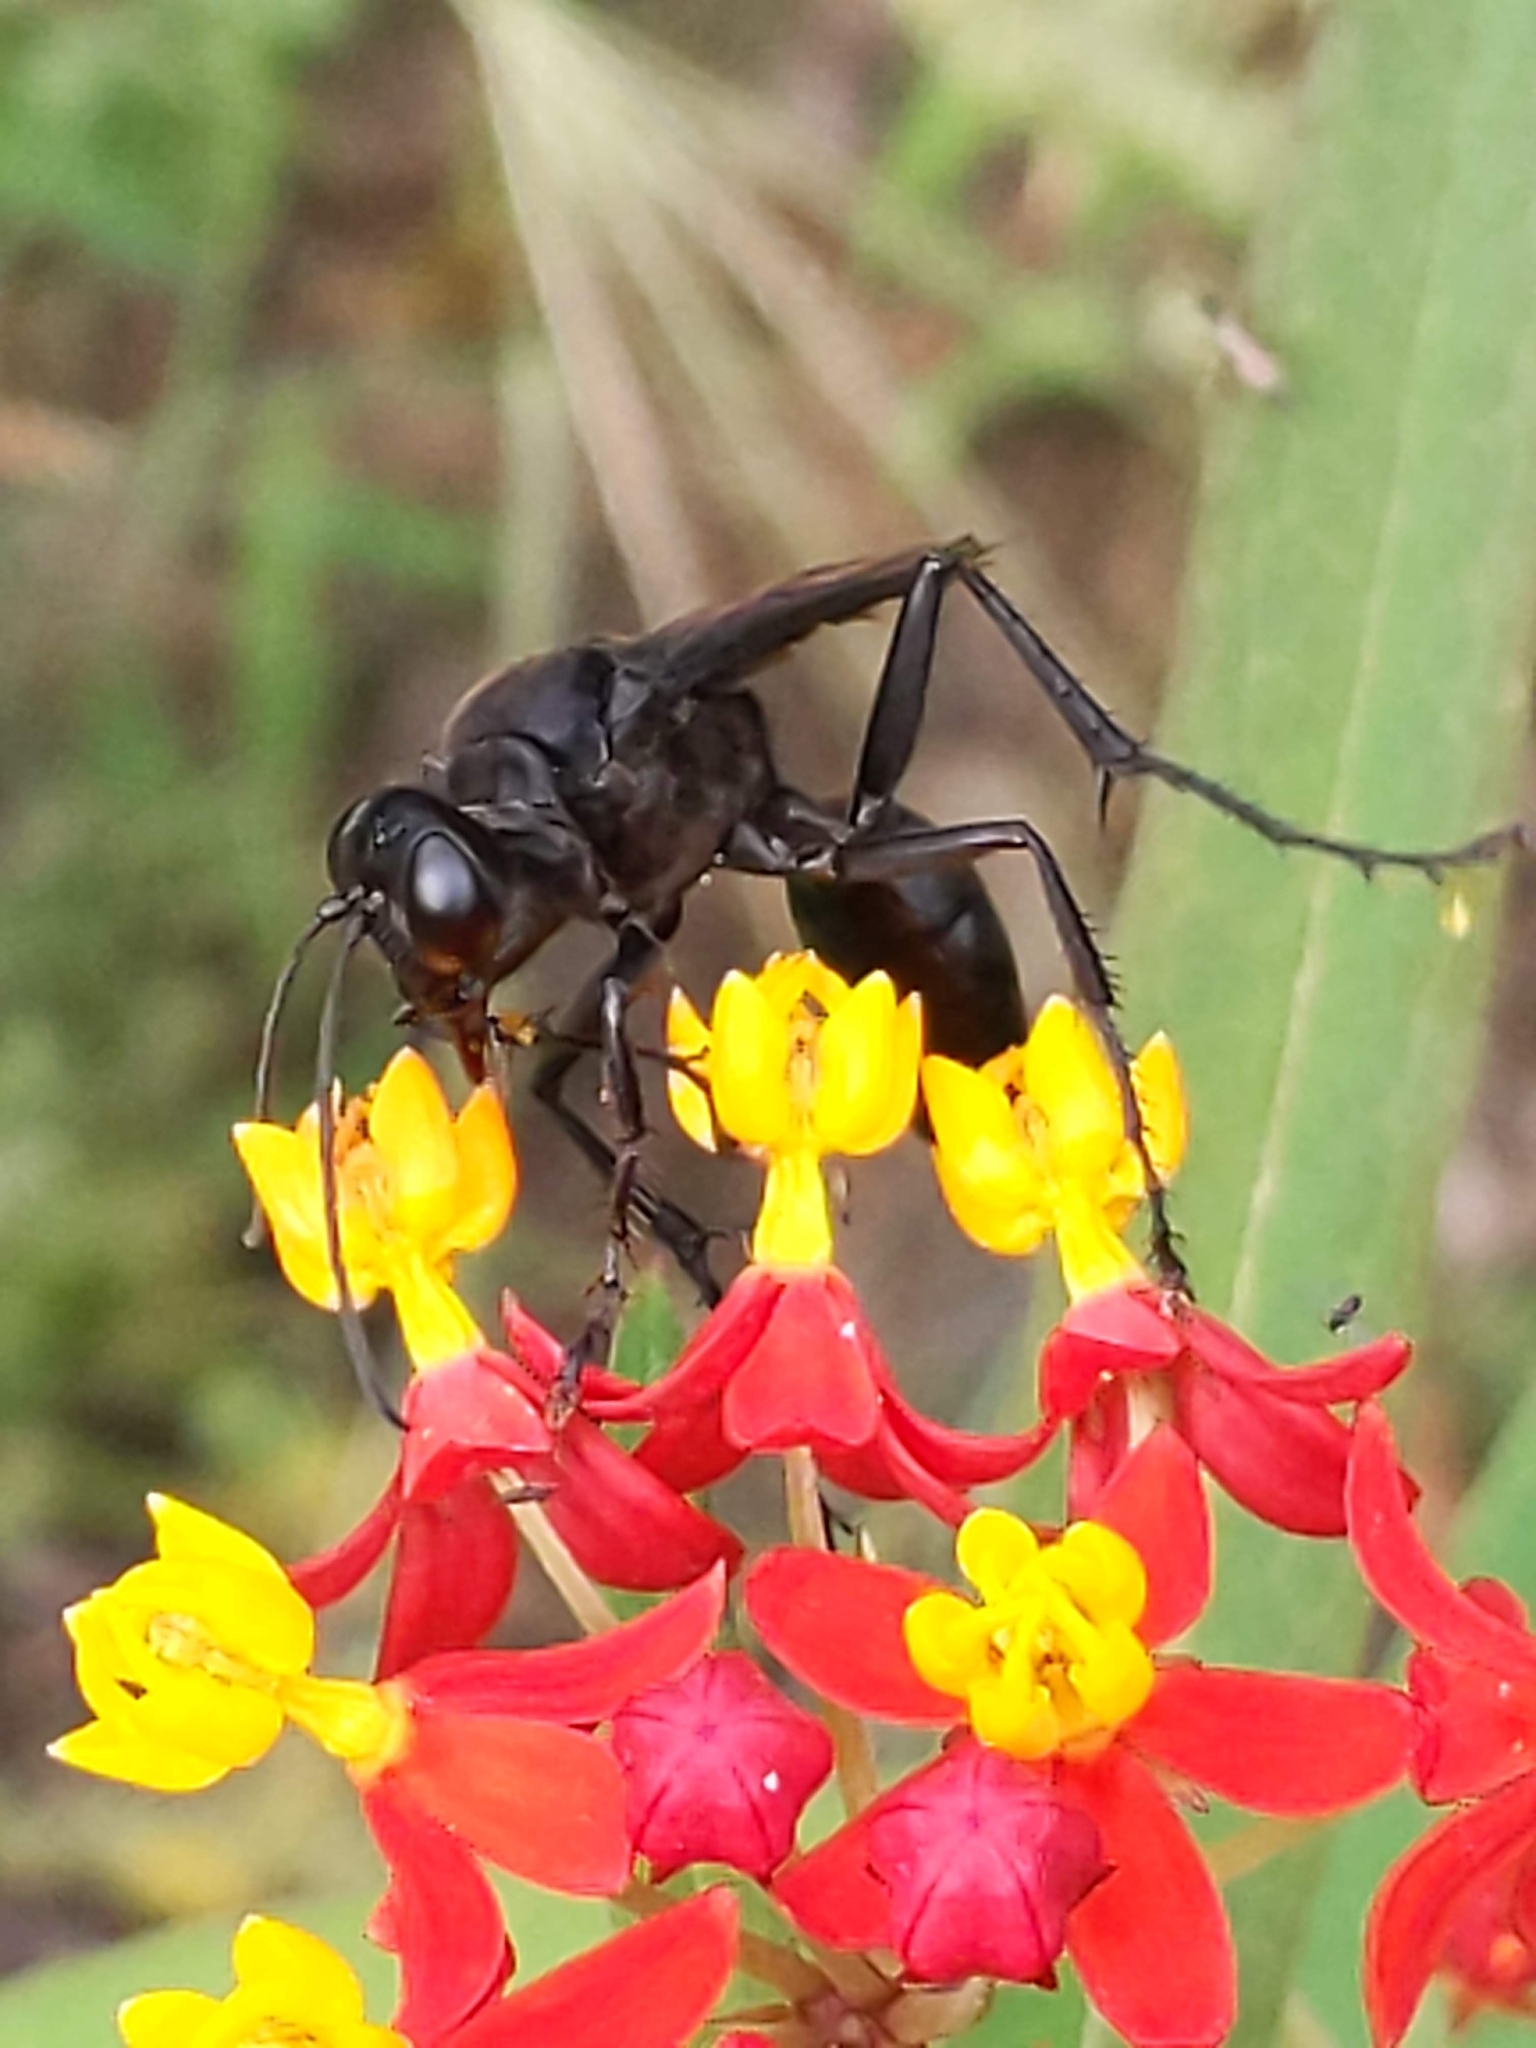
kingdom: Animalia
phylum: Arthropoda
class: Insecta
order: Hymenoptera
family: Sphecidae
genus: Sphex
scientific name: Sphex pensylvanicus
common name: Great black digger wasp
